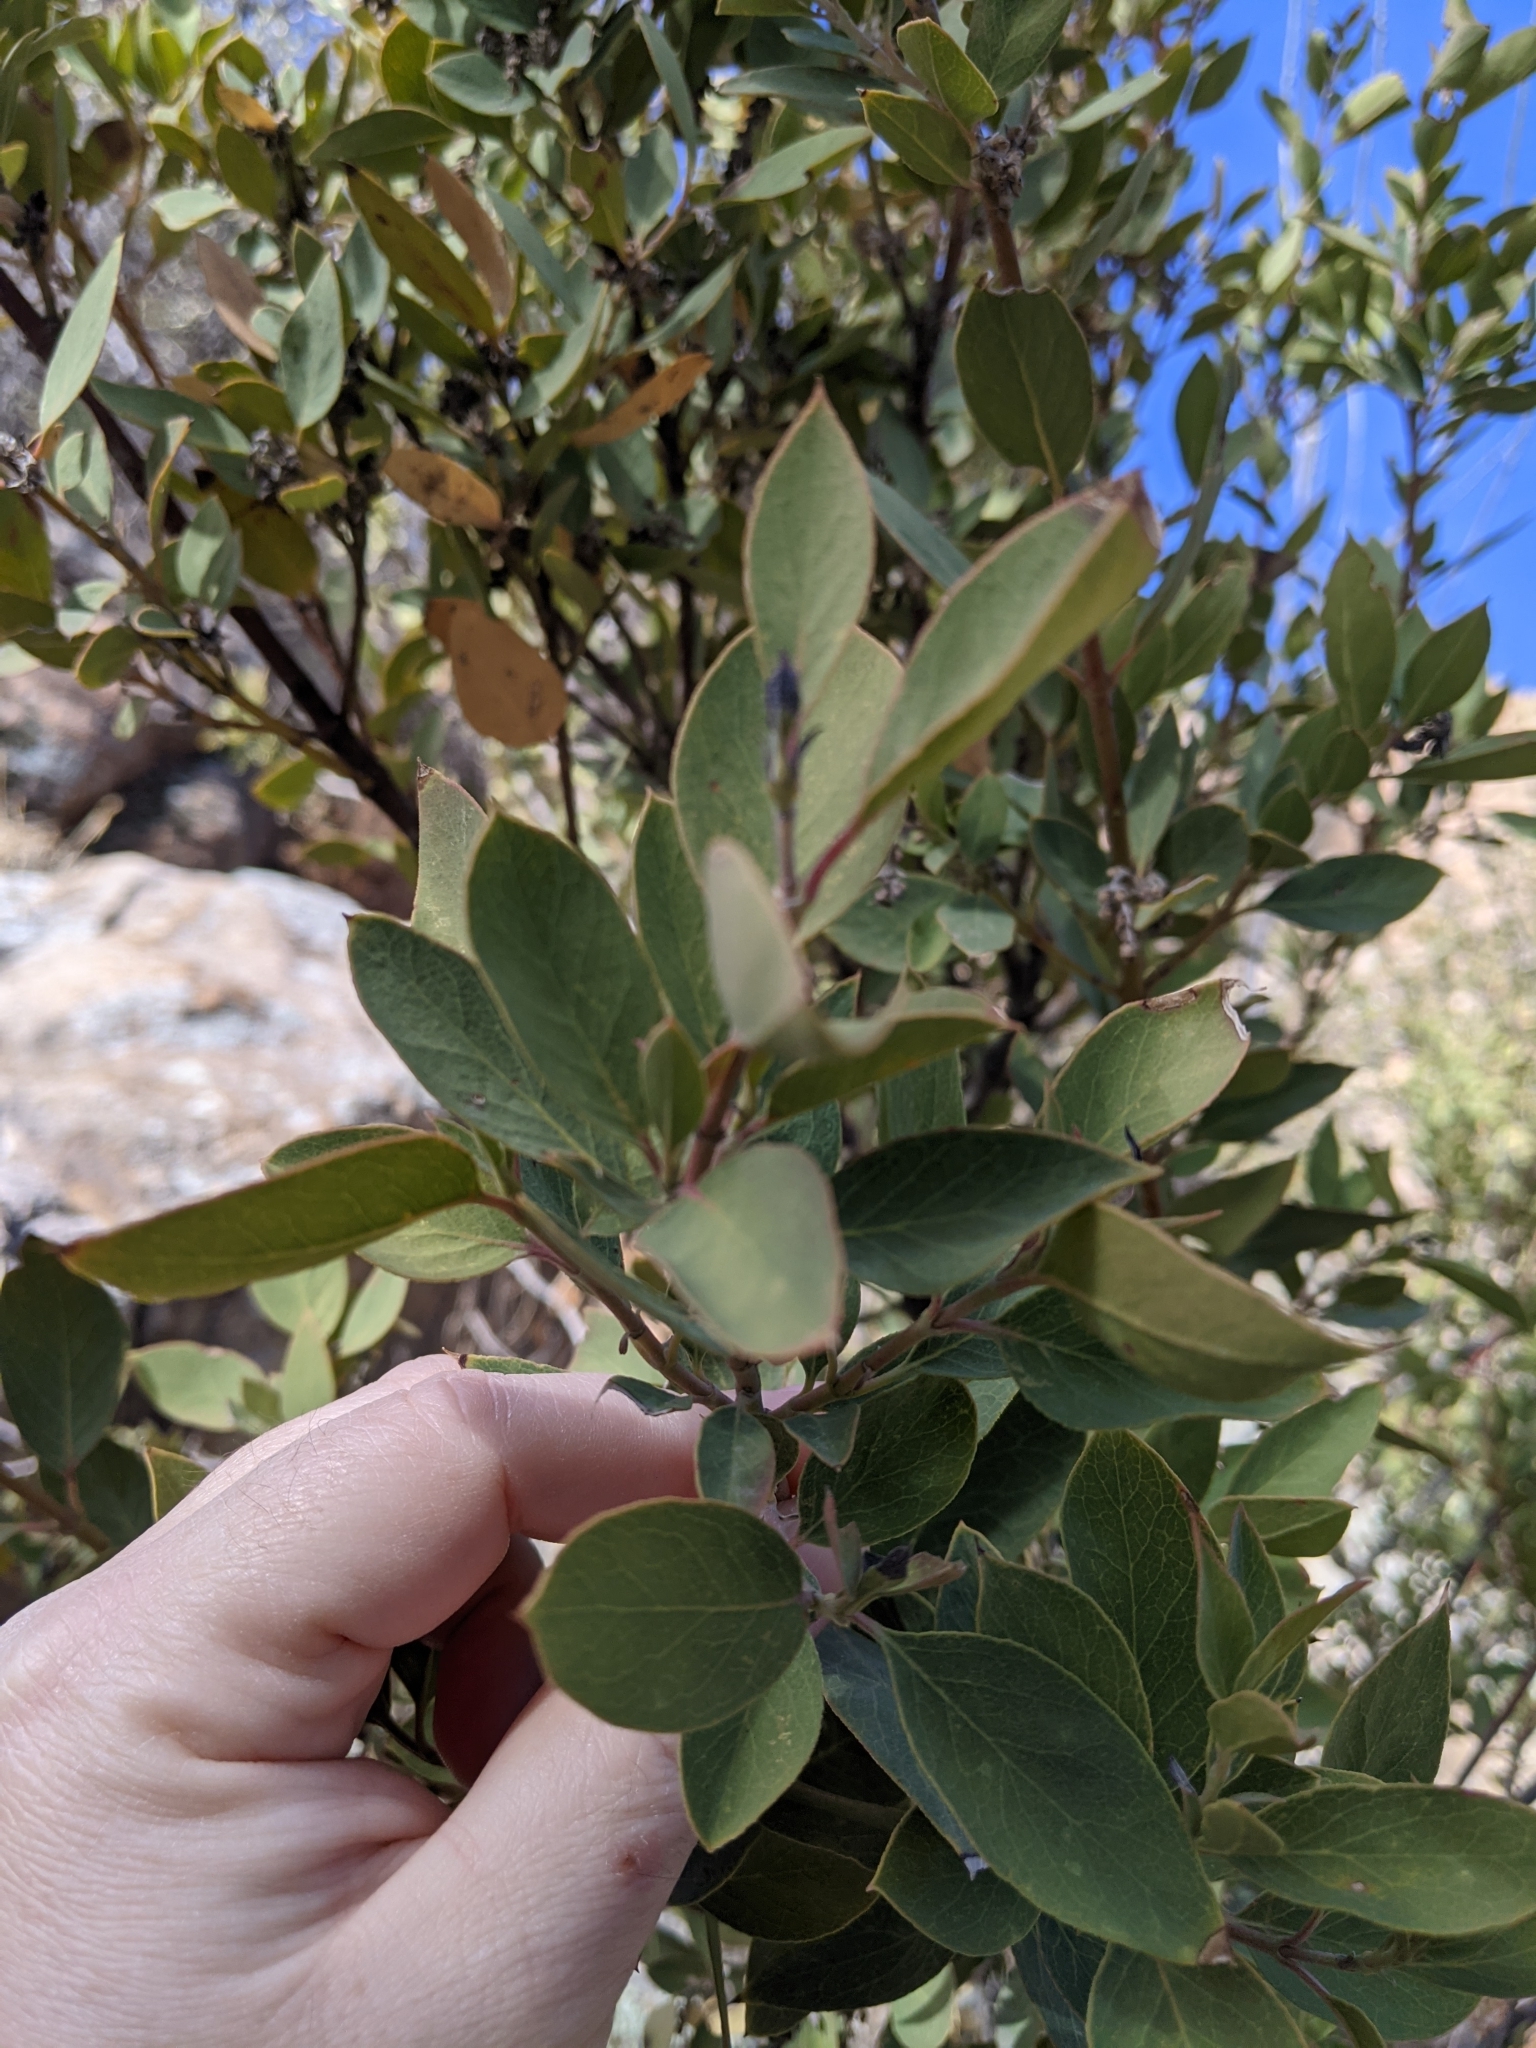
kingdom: Plantae
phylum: Tracheophyta
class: Magnoliopsida
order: Garryales
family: Garryaceae
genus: Garrya
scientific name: Garrya wrightii
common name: Wright's silktassel
